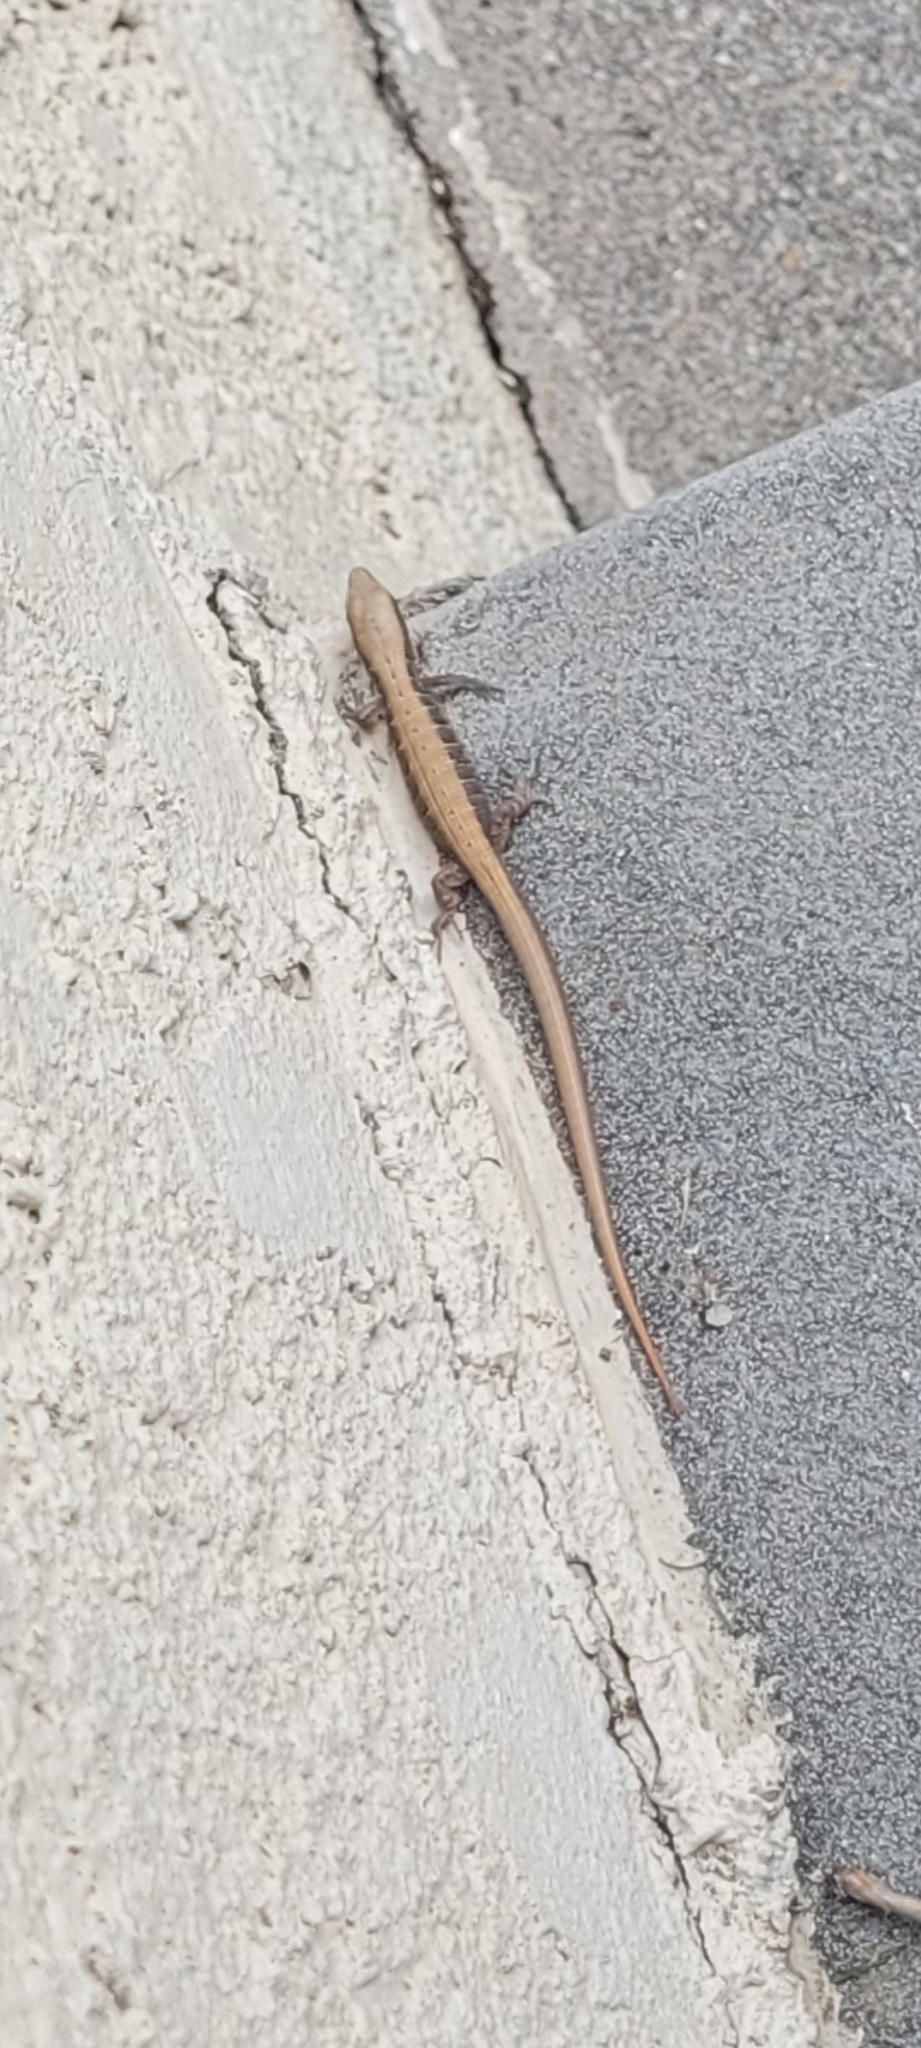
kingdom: Animalia
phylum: Chordata
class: Squamata
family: Anguidae
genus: Elgaria
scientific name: Elgaria multicarinata
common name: Southern alligator lizard
